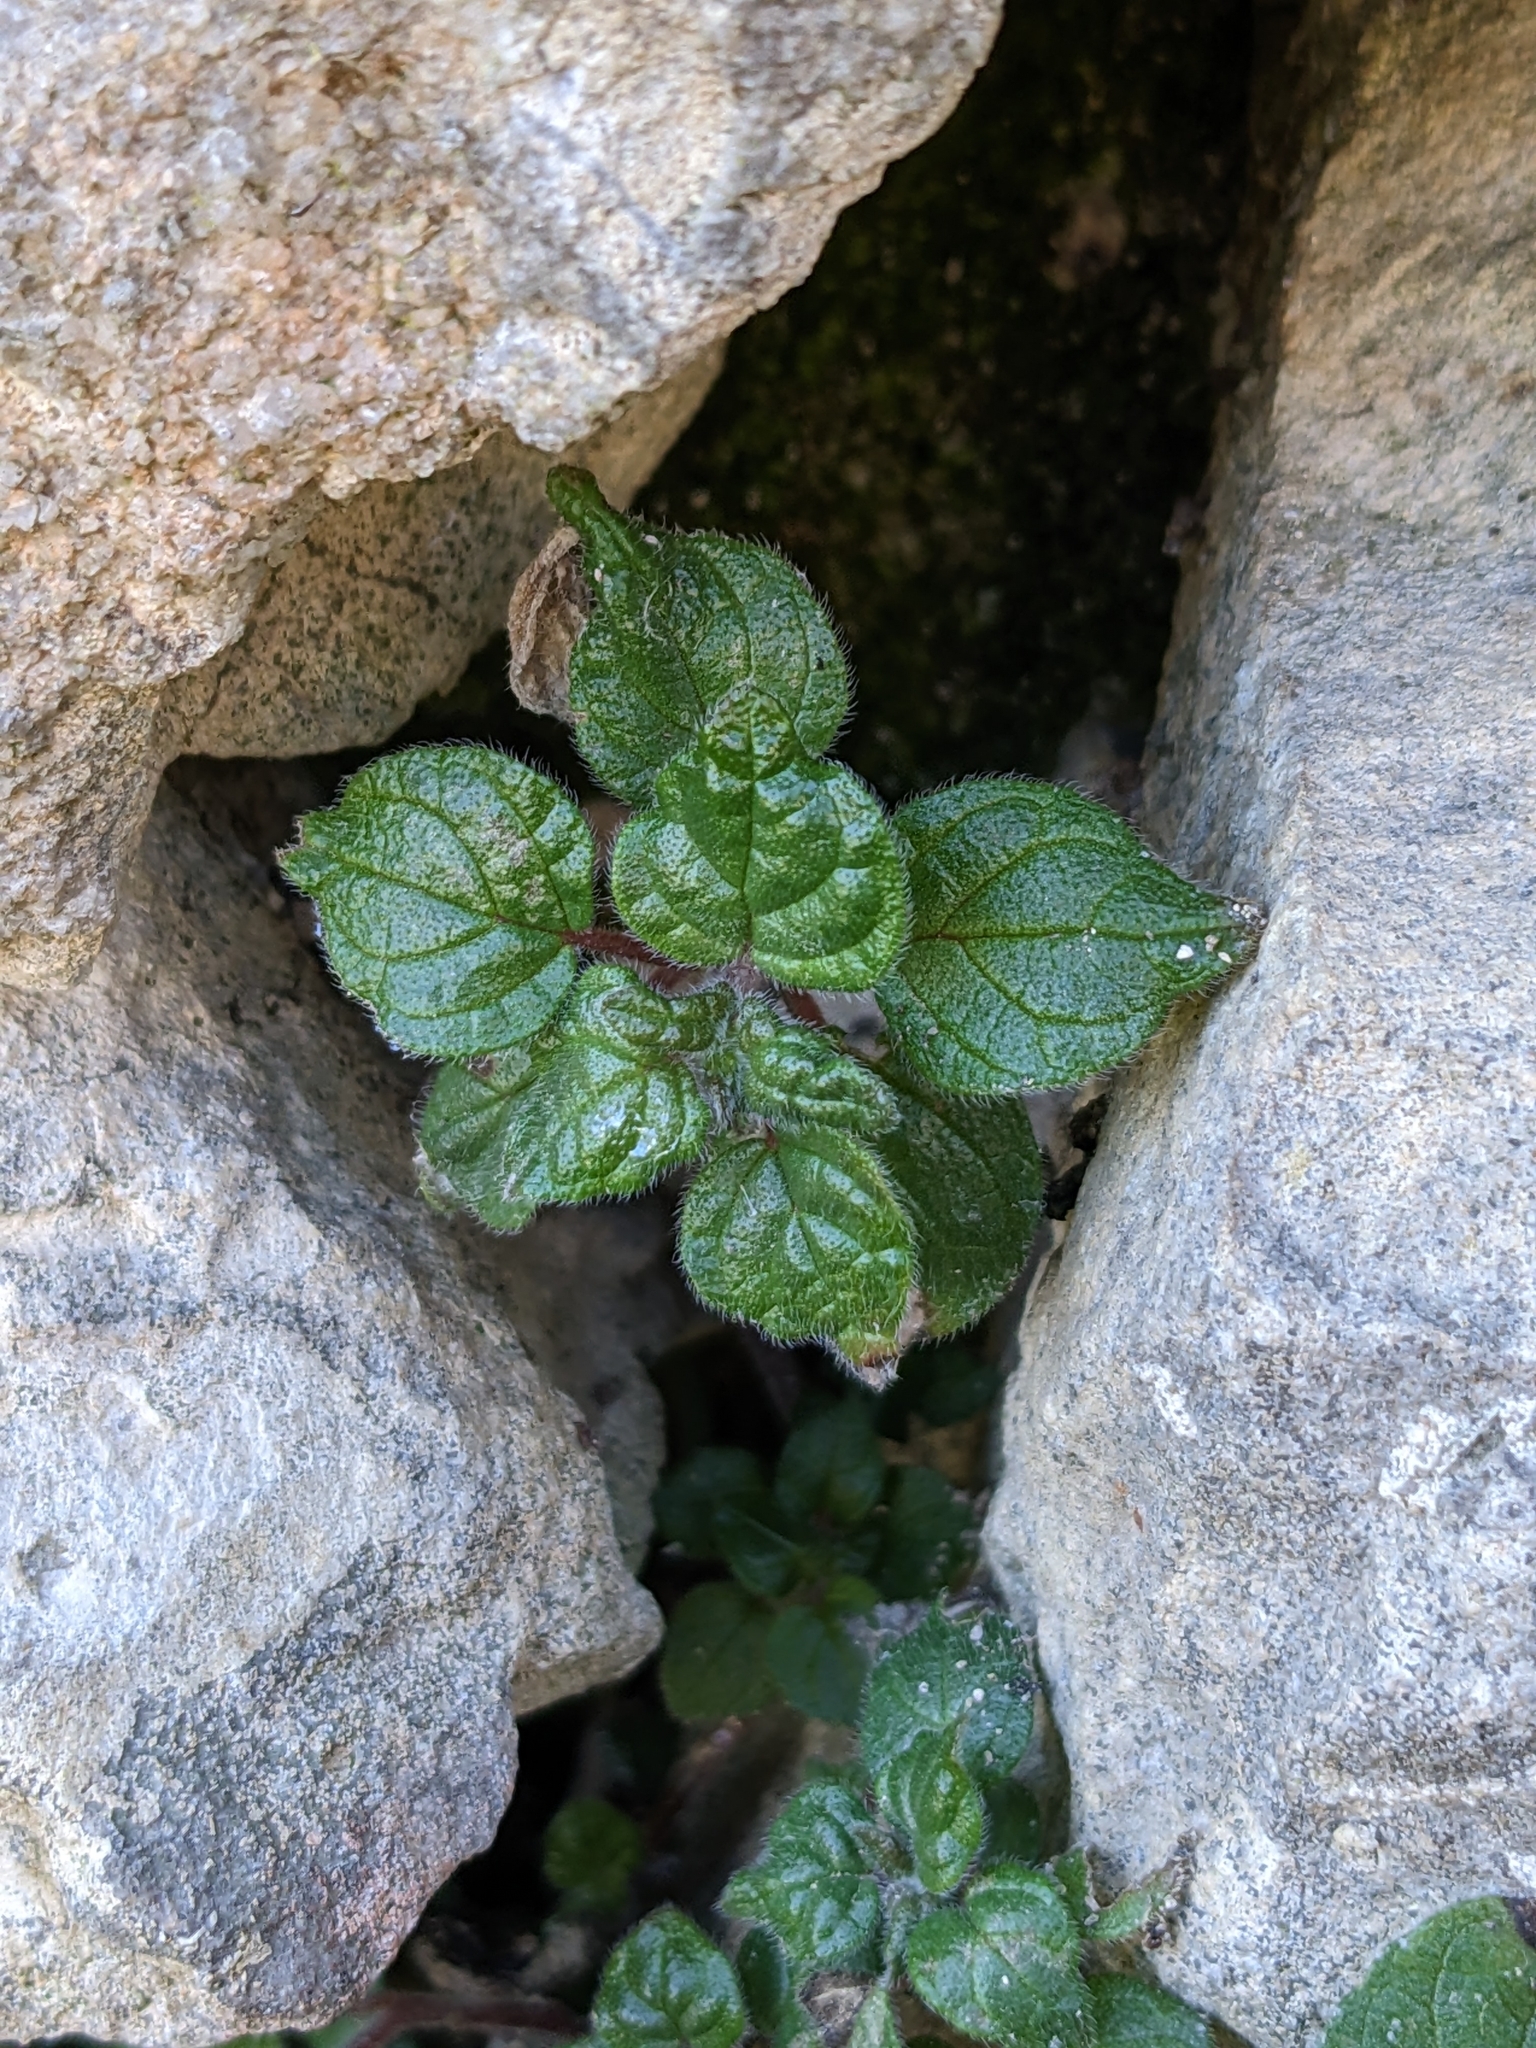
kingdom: Plantae
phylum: Tracheophyta
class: Magnoliopsida
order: Rosales
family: Urticaceae
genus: Parietaria
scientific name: Parietaria judaica
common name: Pellitory-of-the-wall
